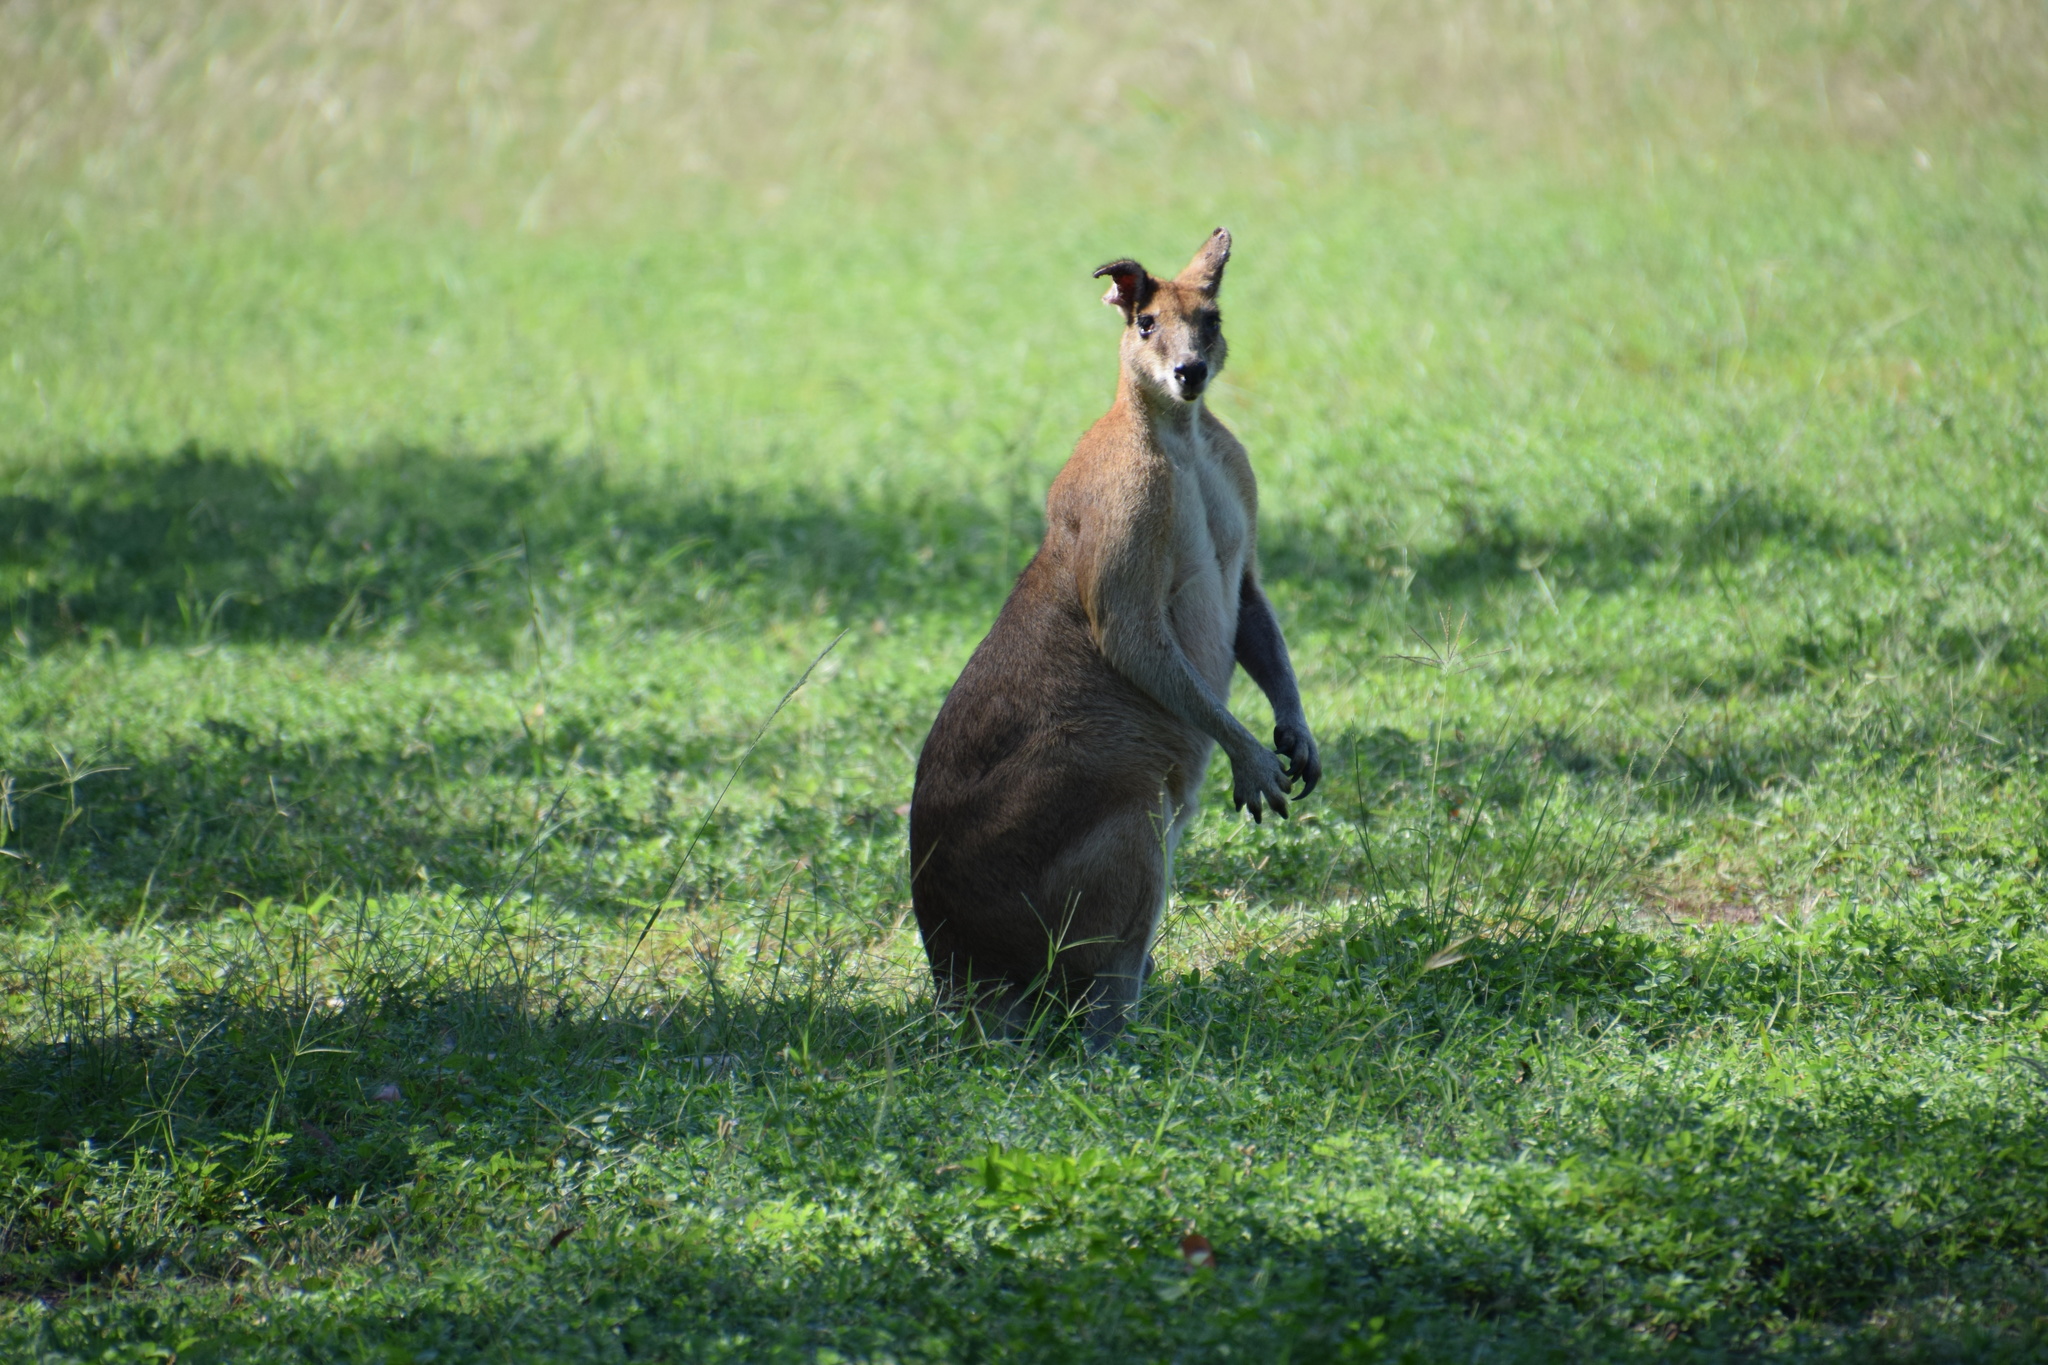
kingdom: Animalia
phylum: Chordata
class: Mammalia
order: Diprotodontia
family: Macropodidae
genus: Macropus
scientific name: Macropus agilis
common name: Agile wallaby
